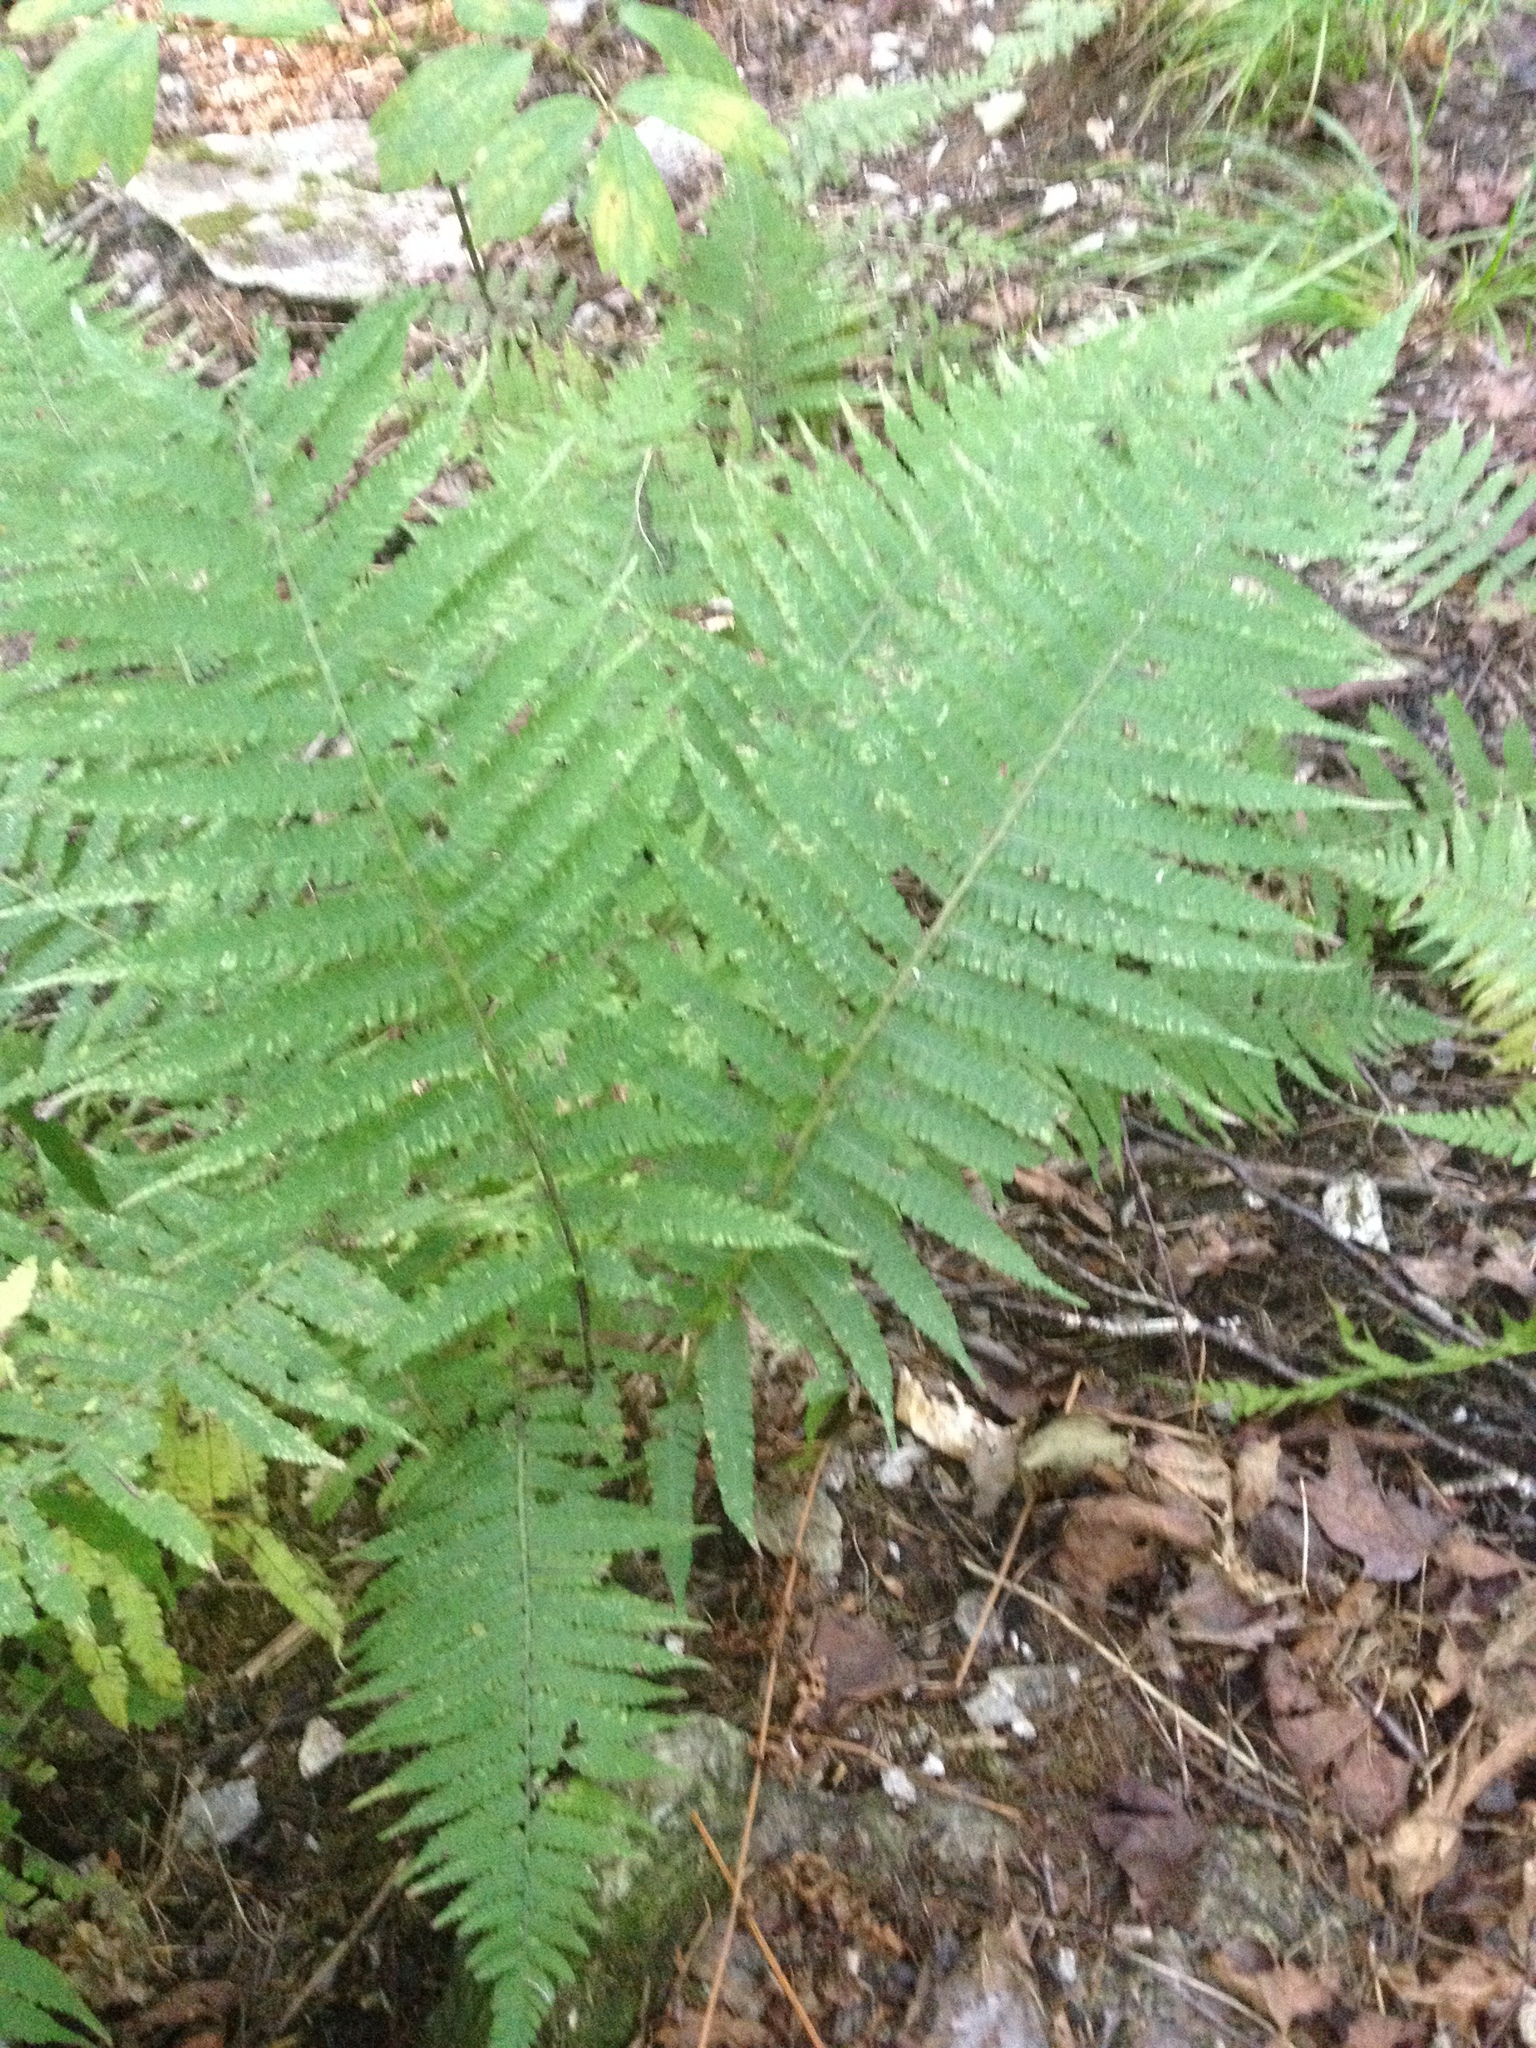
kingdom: Plantae
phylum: Tracheophyta
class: Polypodiopsida
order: Polypodiales
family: Athyriaceae
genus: Deparia
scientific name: Deparia acrostichoides
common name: Silver false spleenwort
